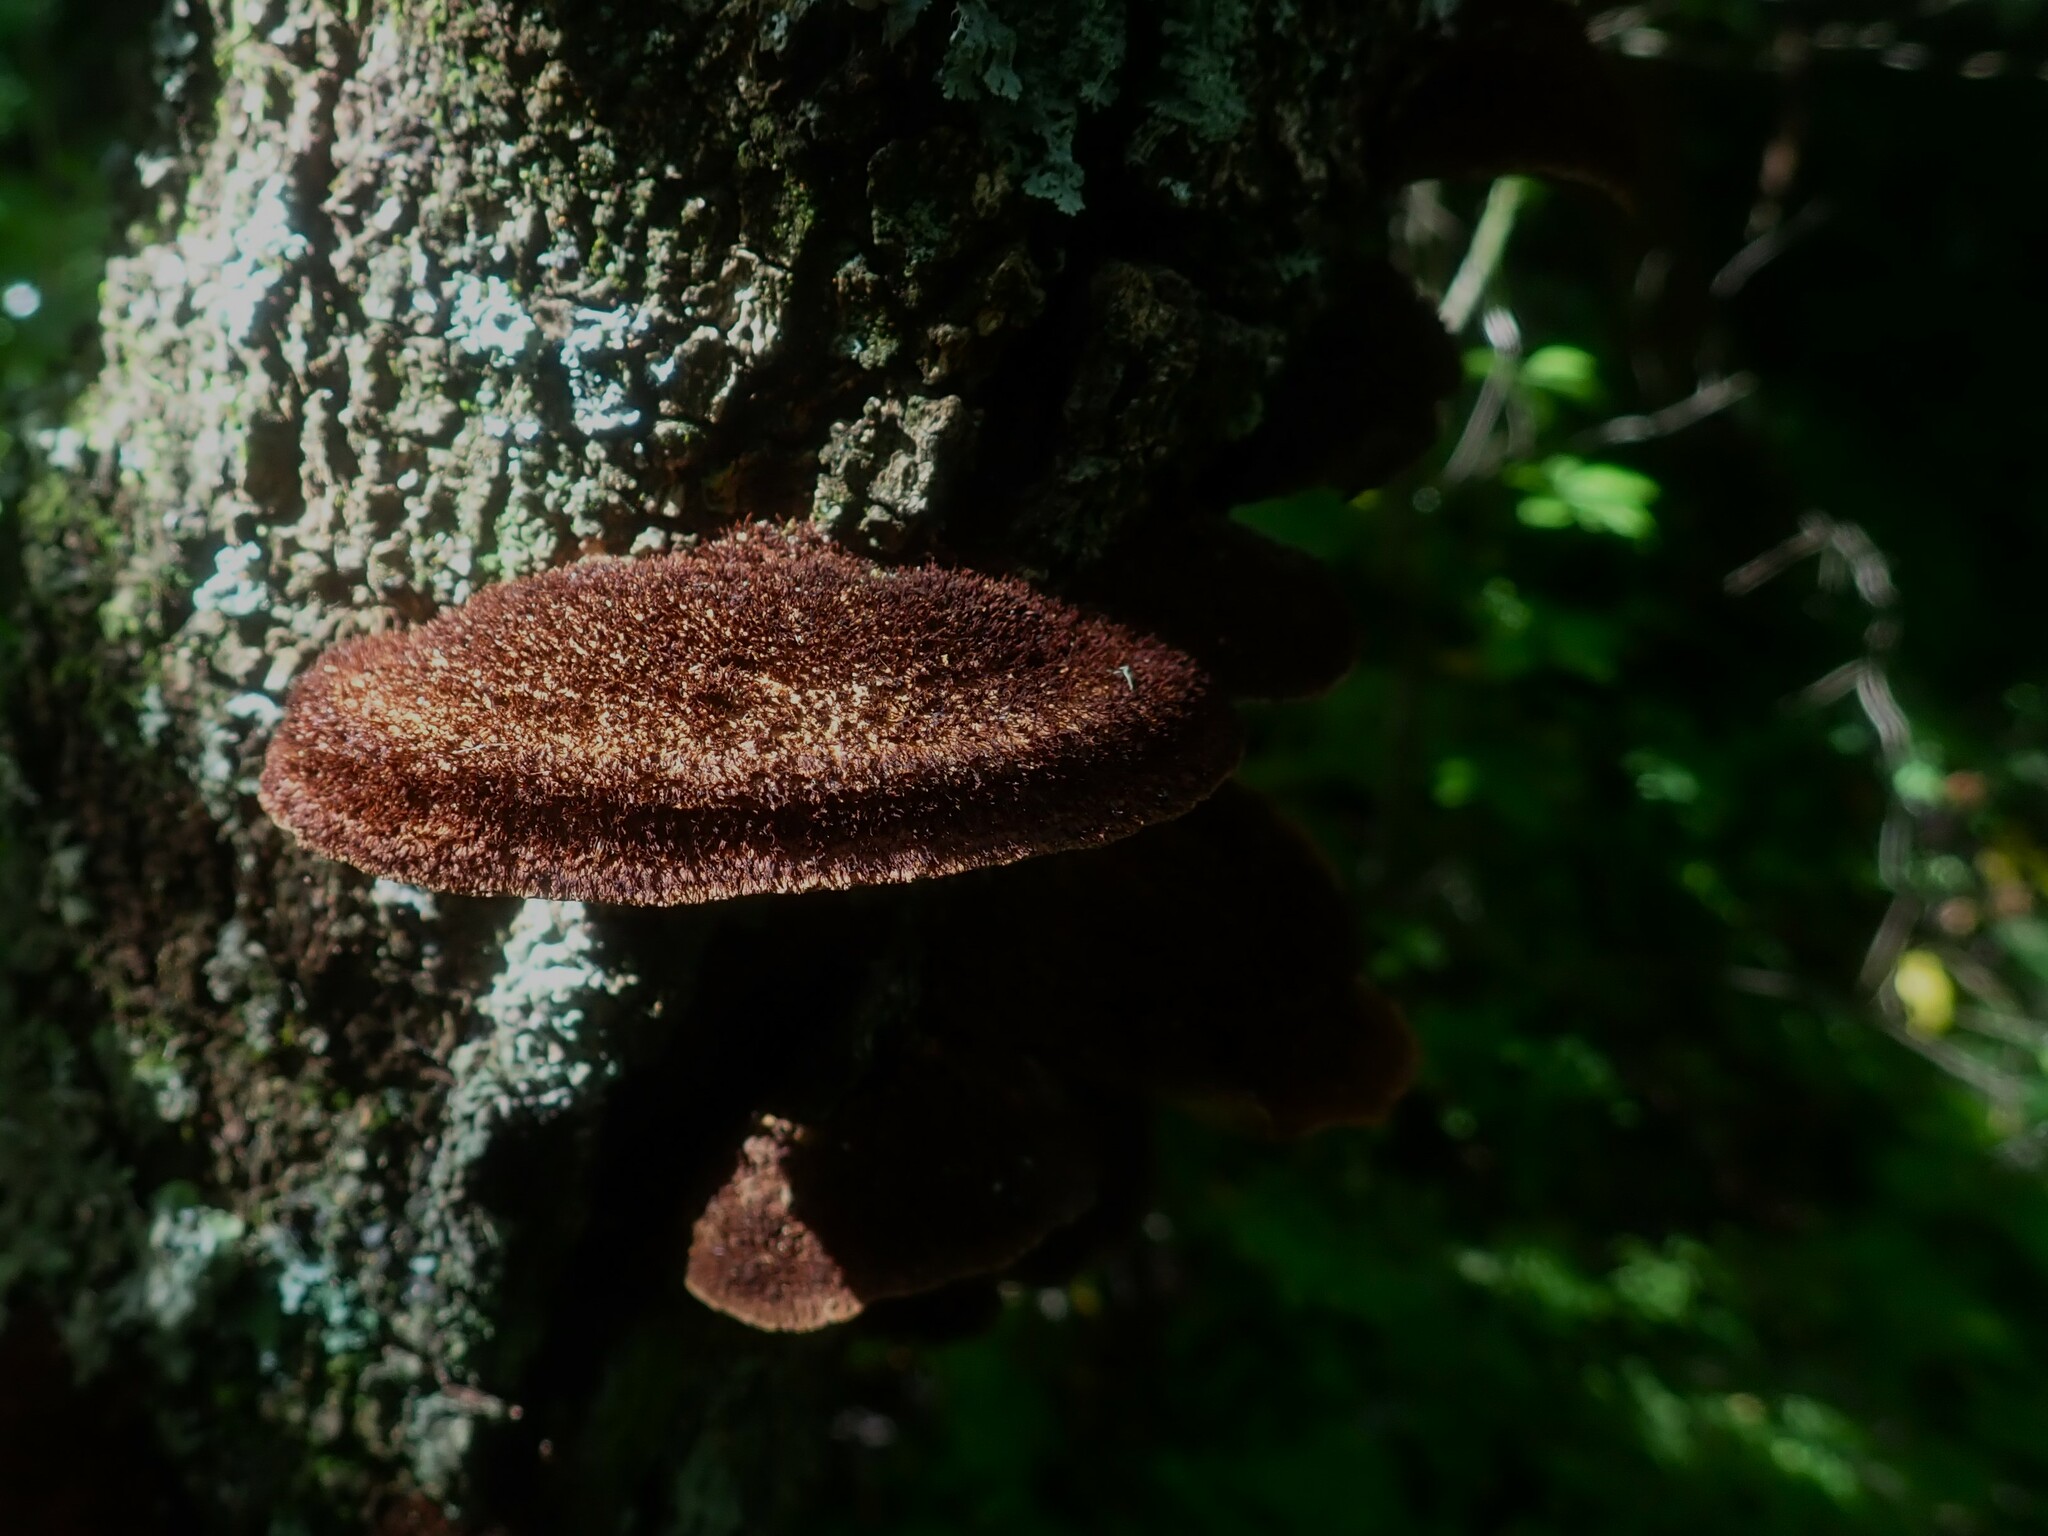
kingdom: Fungi
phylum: Basidiomycota
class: Agaricomycetes
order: Polyporales
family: Cerrenaceae
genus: Cerrena
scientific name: Cerrena hydnoides
